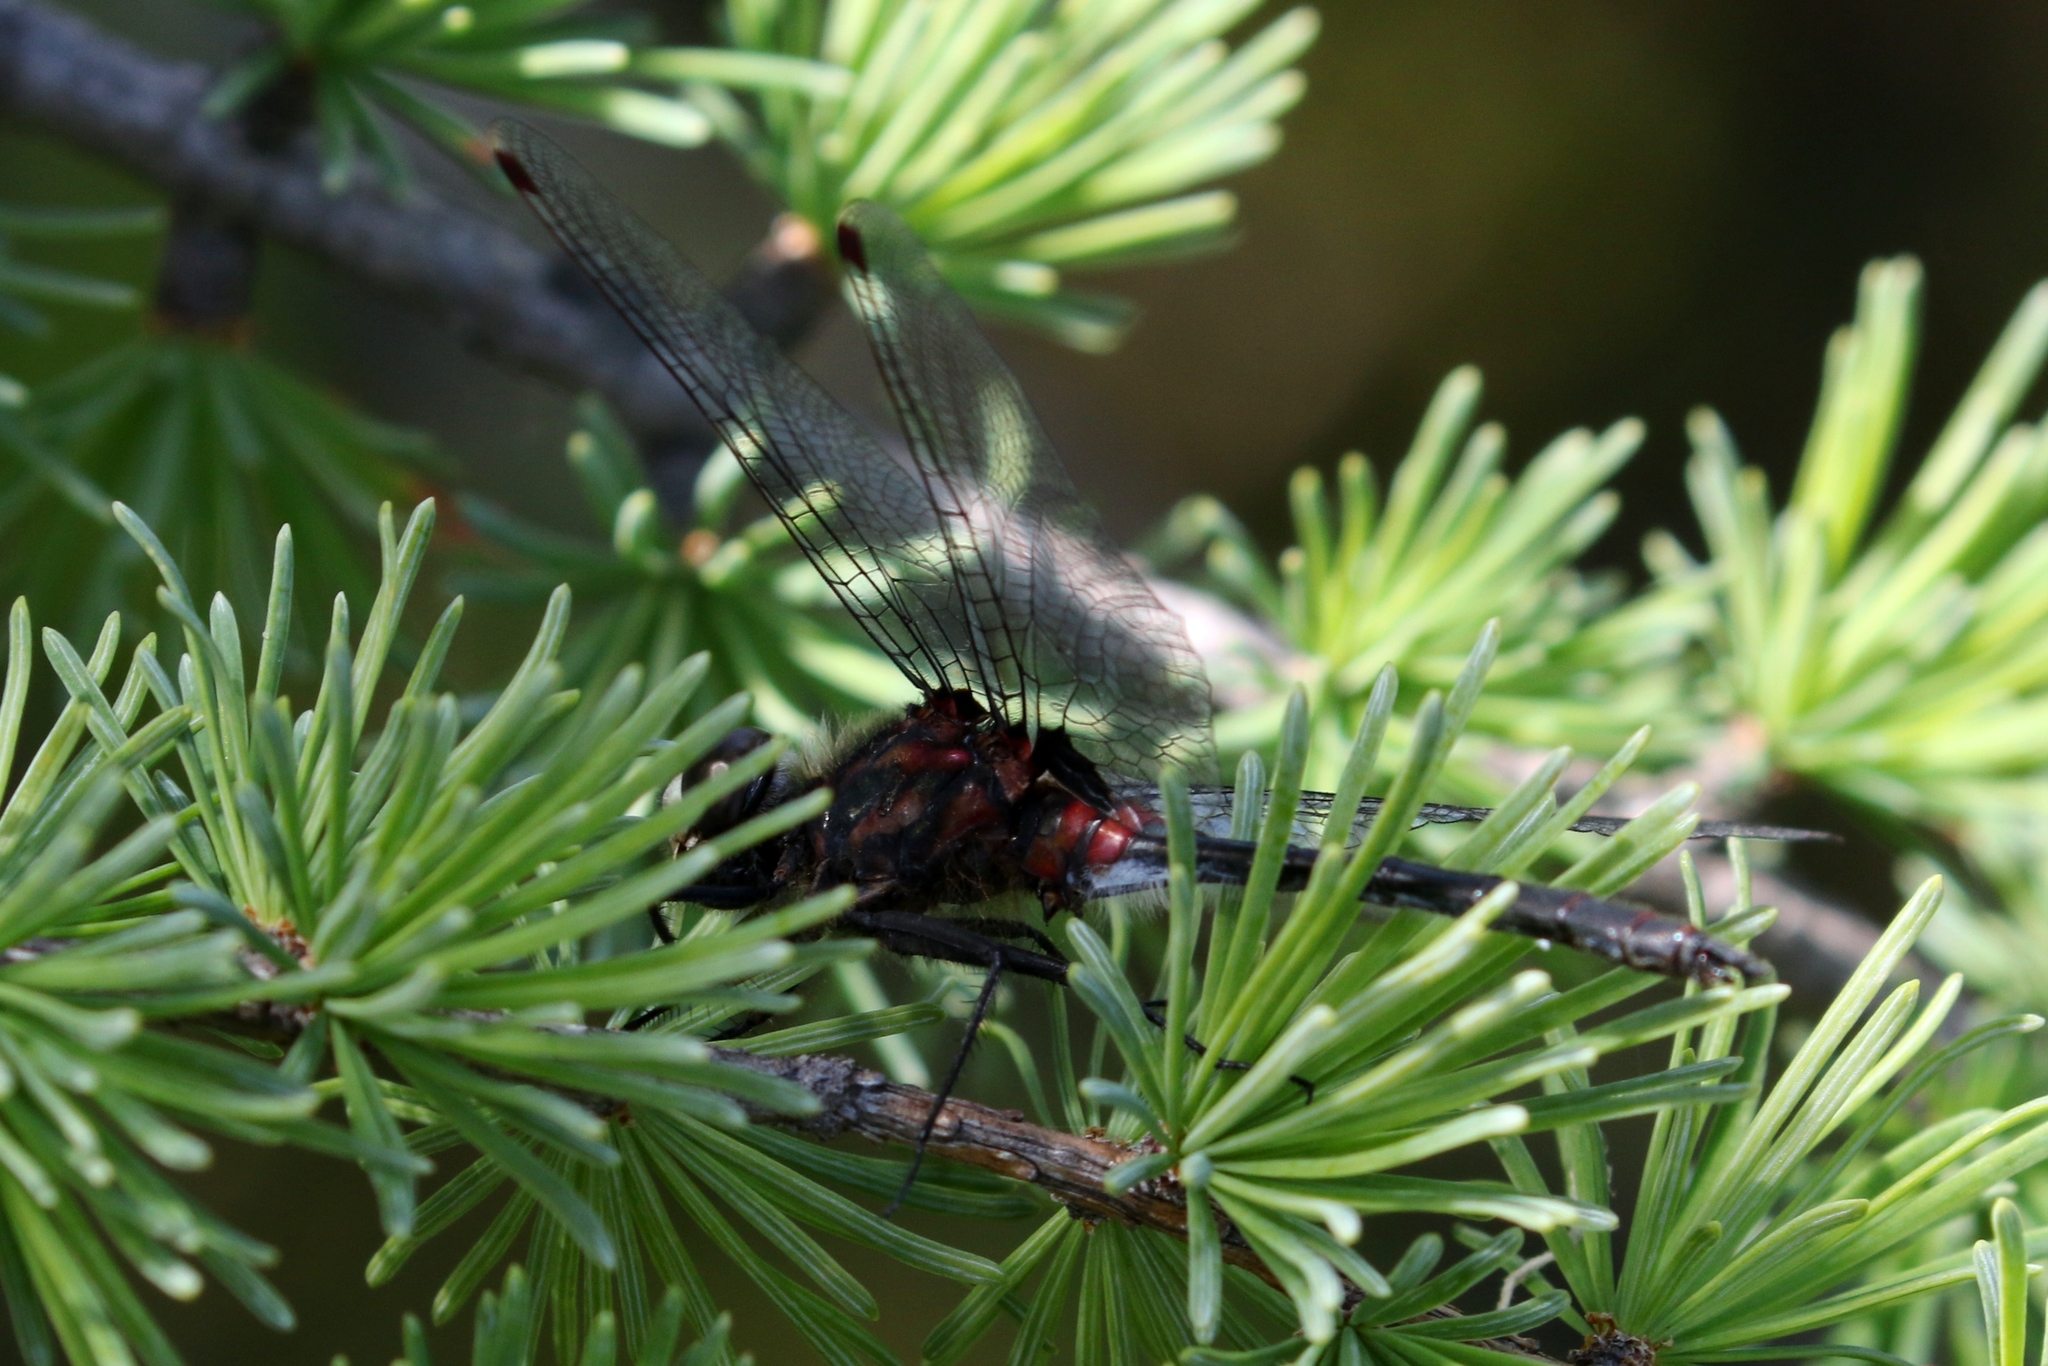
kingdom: Animalia
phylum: Arthropoda
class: Insecta
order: Odonata
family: Libellulidae
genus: Leucorrhinia
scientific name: Leucorrhinia glacialis
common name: Crimson-ringed whiteface
